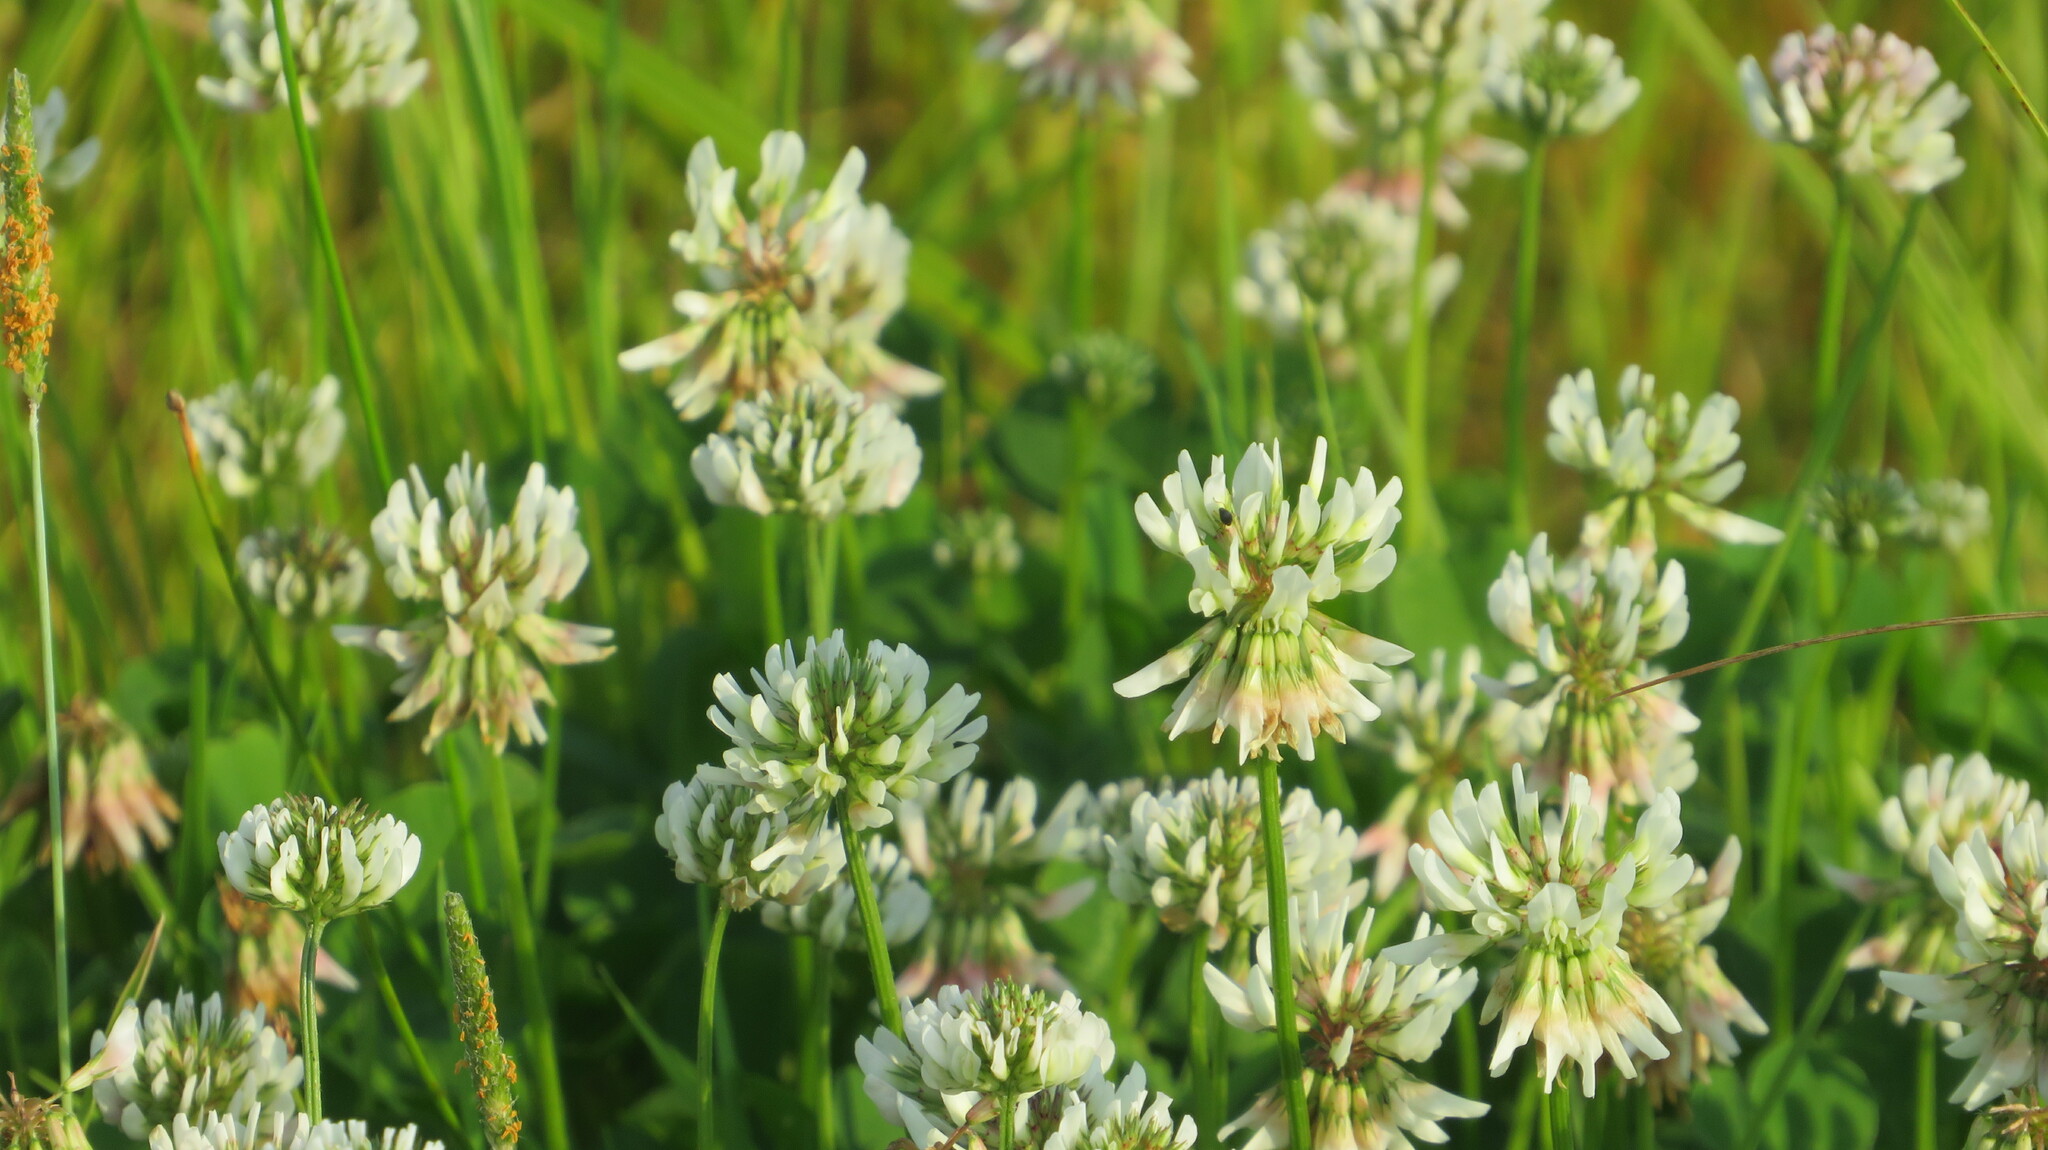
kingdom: Plantae
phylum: Tracheophyta
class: Magnoliopsida
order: Fabales
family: Fabaceae
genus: Trifolium
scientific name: Trifolium repens
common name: White clover
